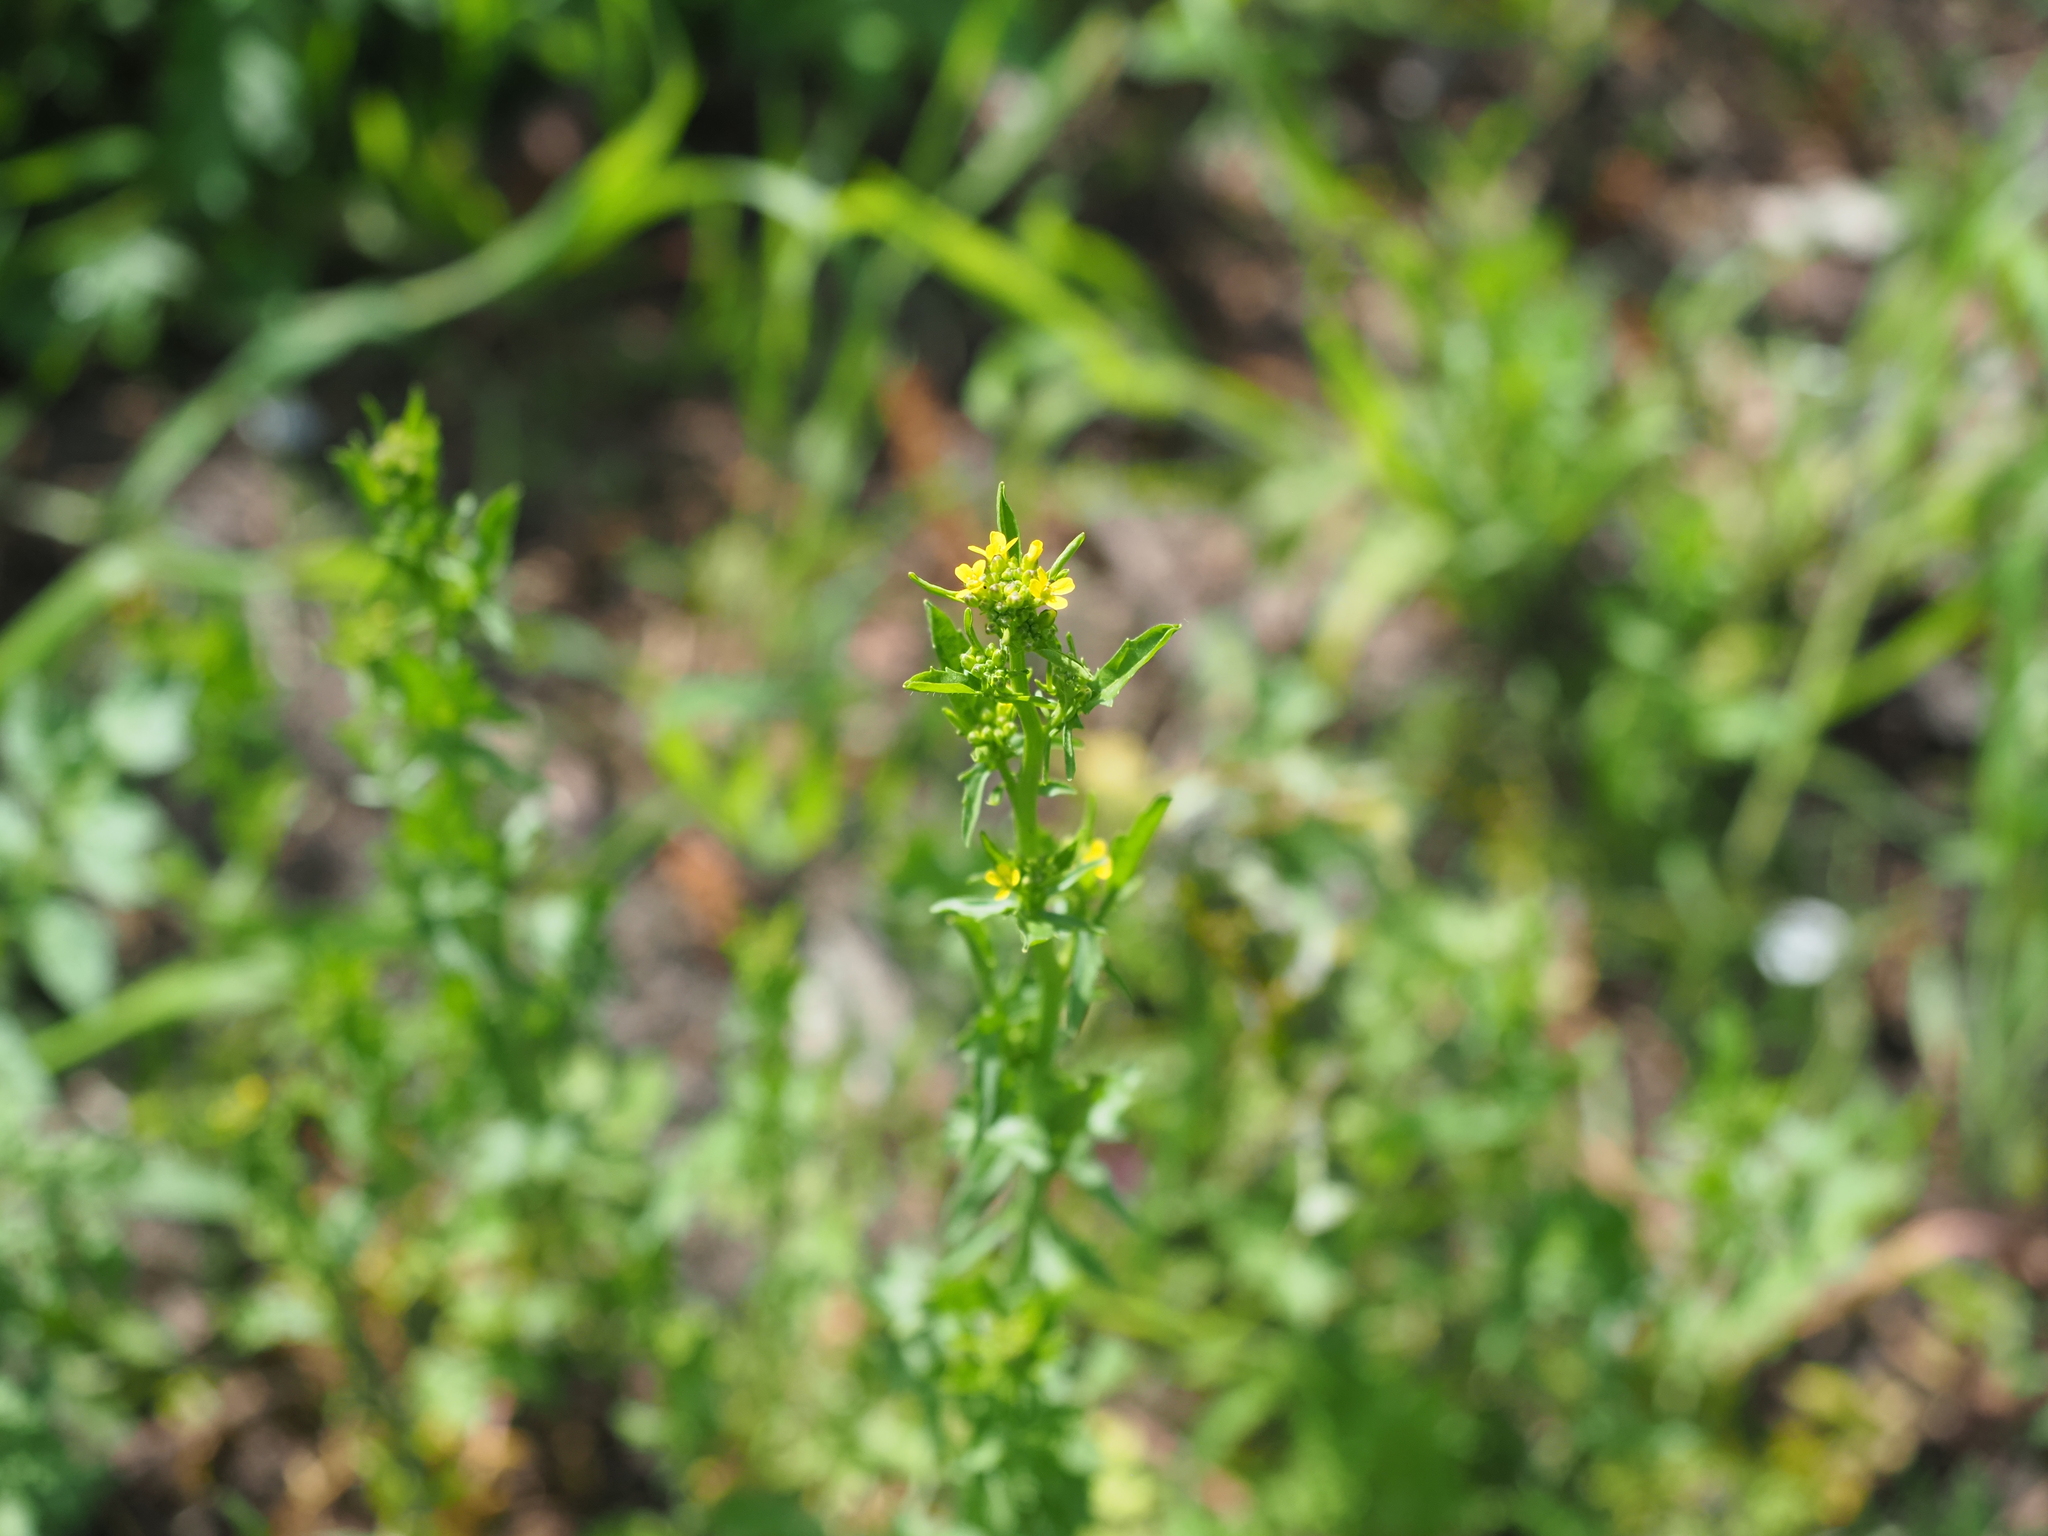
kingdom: Plantae
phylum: Tracheophyta
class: Magnoliopsida
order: Brassicales
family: Brassicaceae
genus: Sisymbrium
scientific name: Sisymbrium officinale
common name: Hedge mustard
